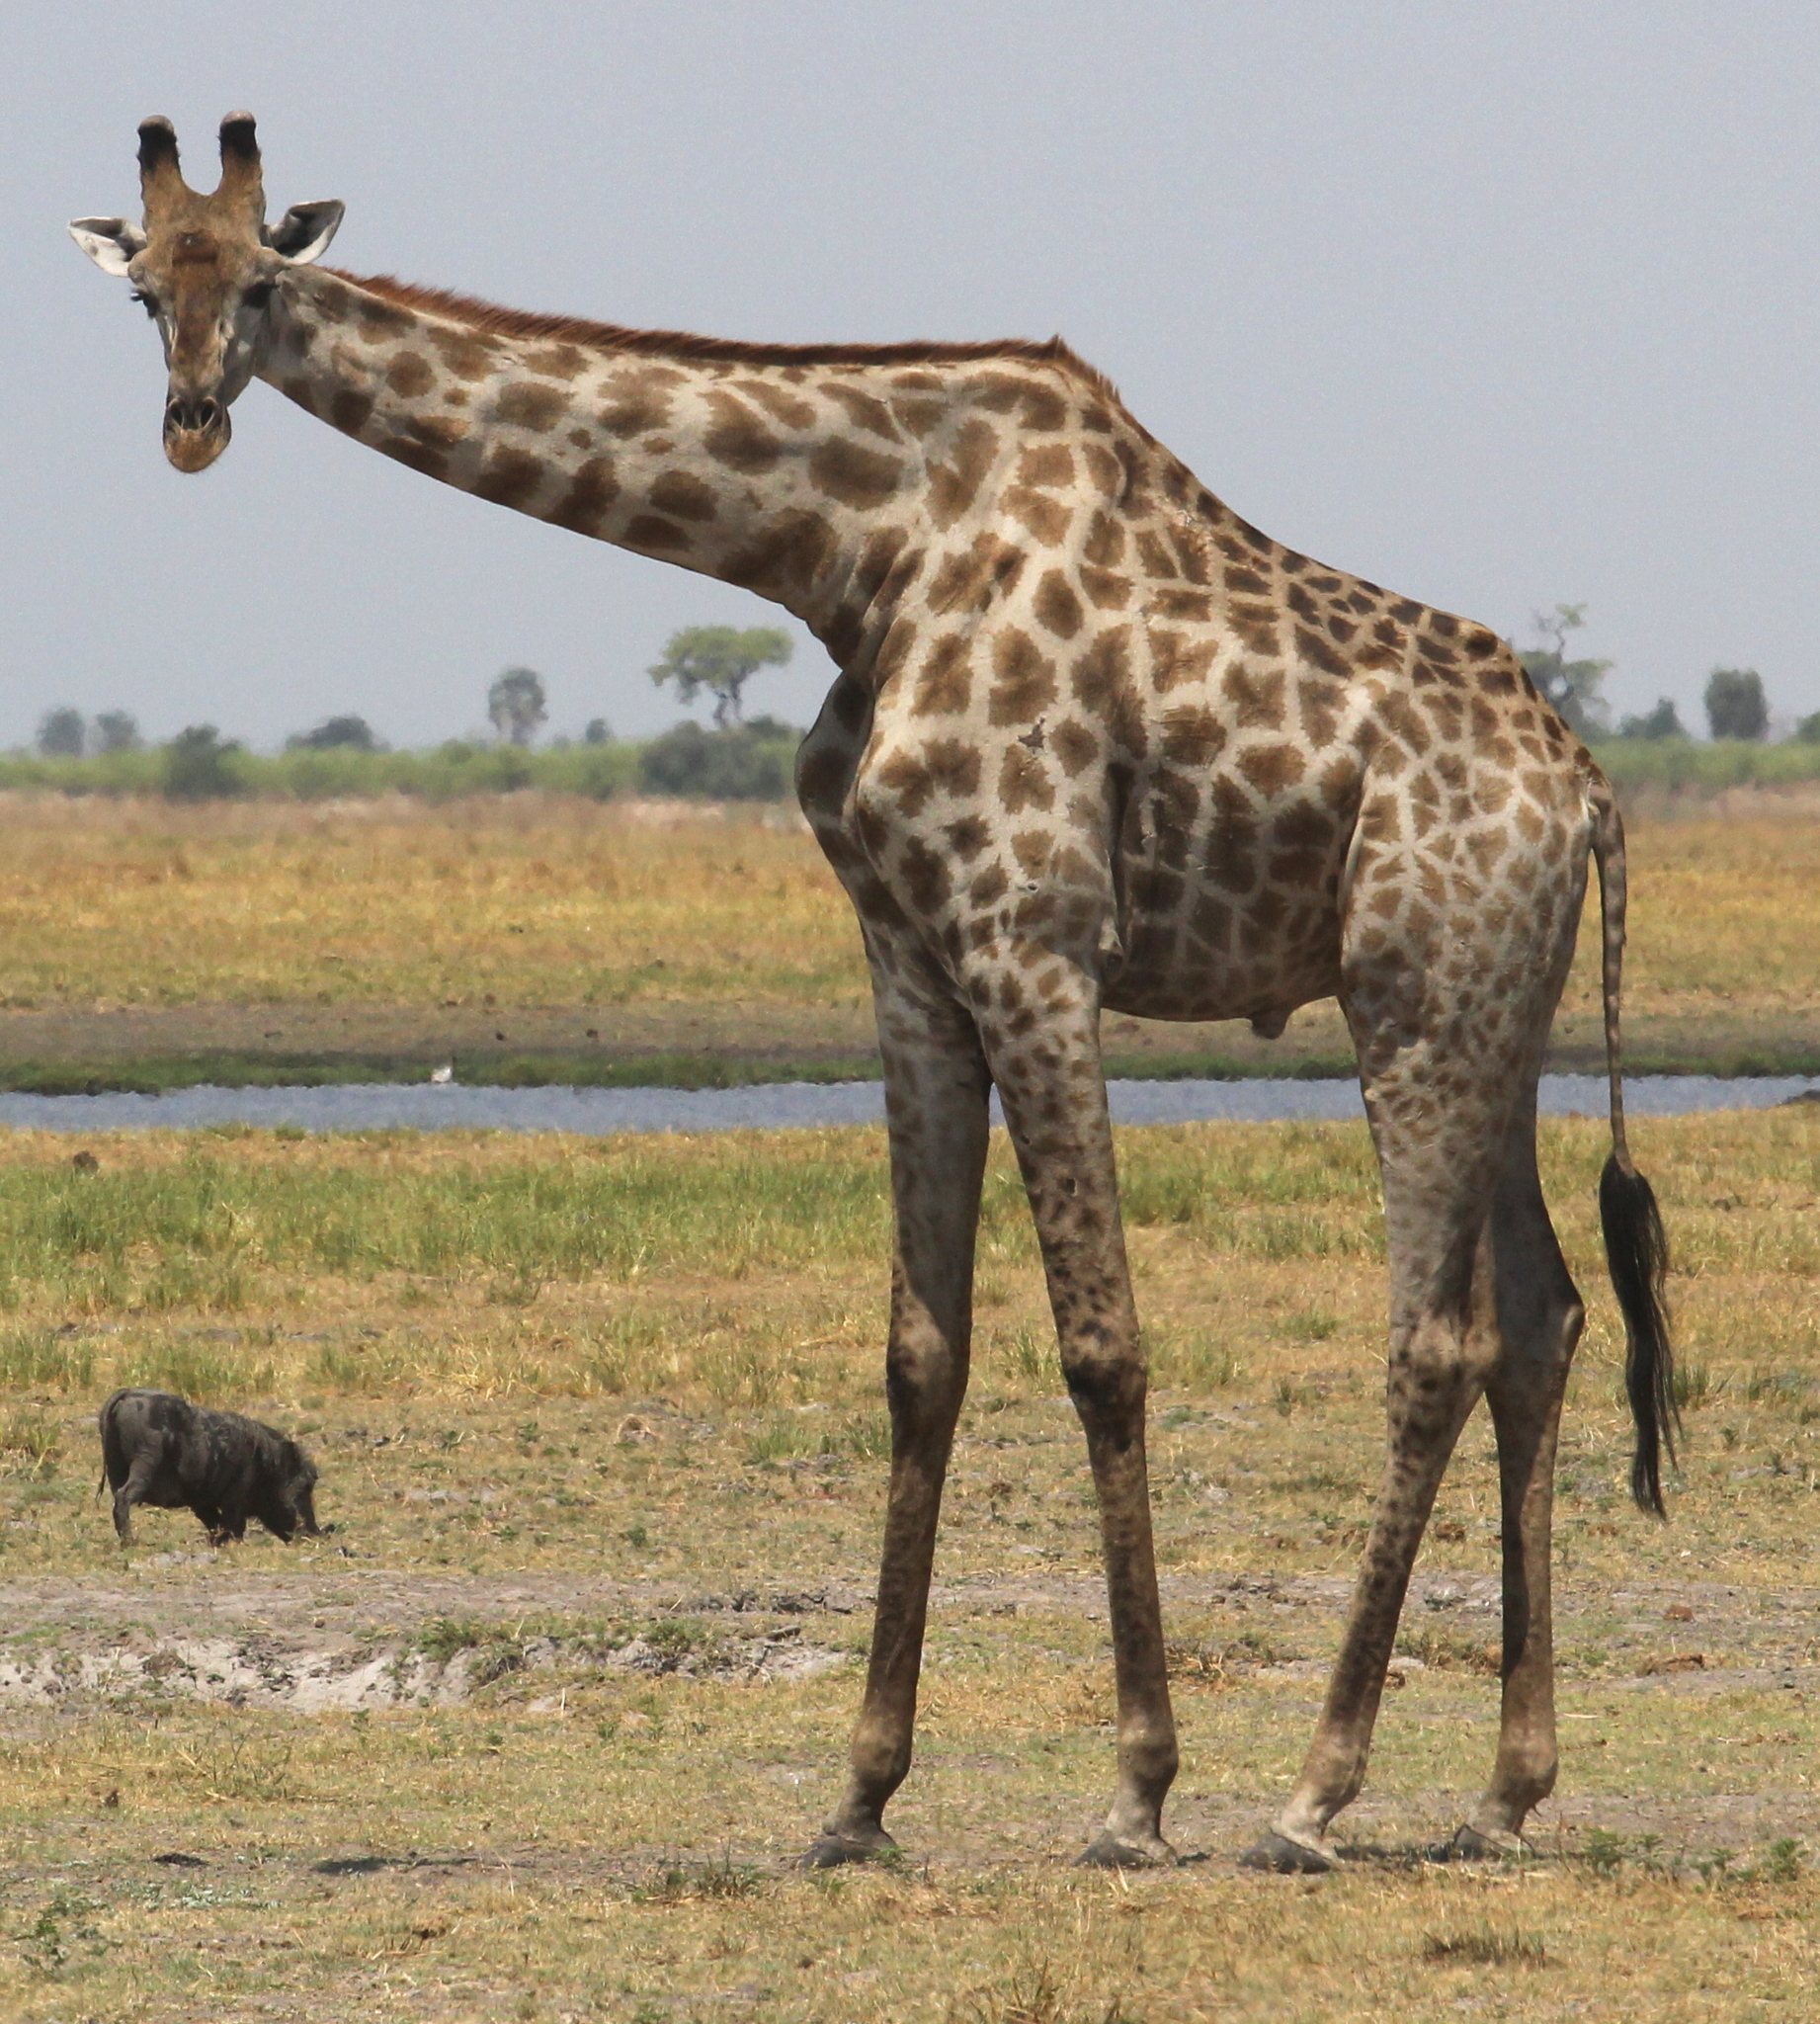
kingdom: Animalia
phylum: Chordata
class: Mammalia
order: Artiodactyla
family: Giraffidae
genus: Giraffa
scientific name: Giraffa giraffa
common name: Southern giraffe
